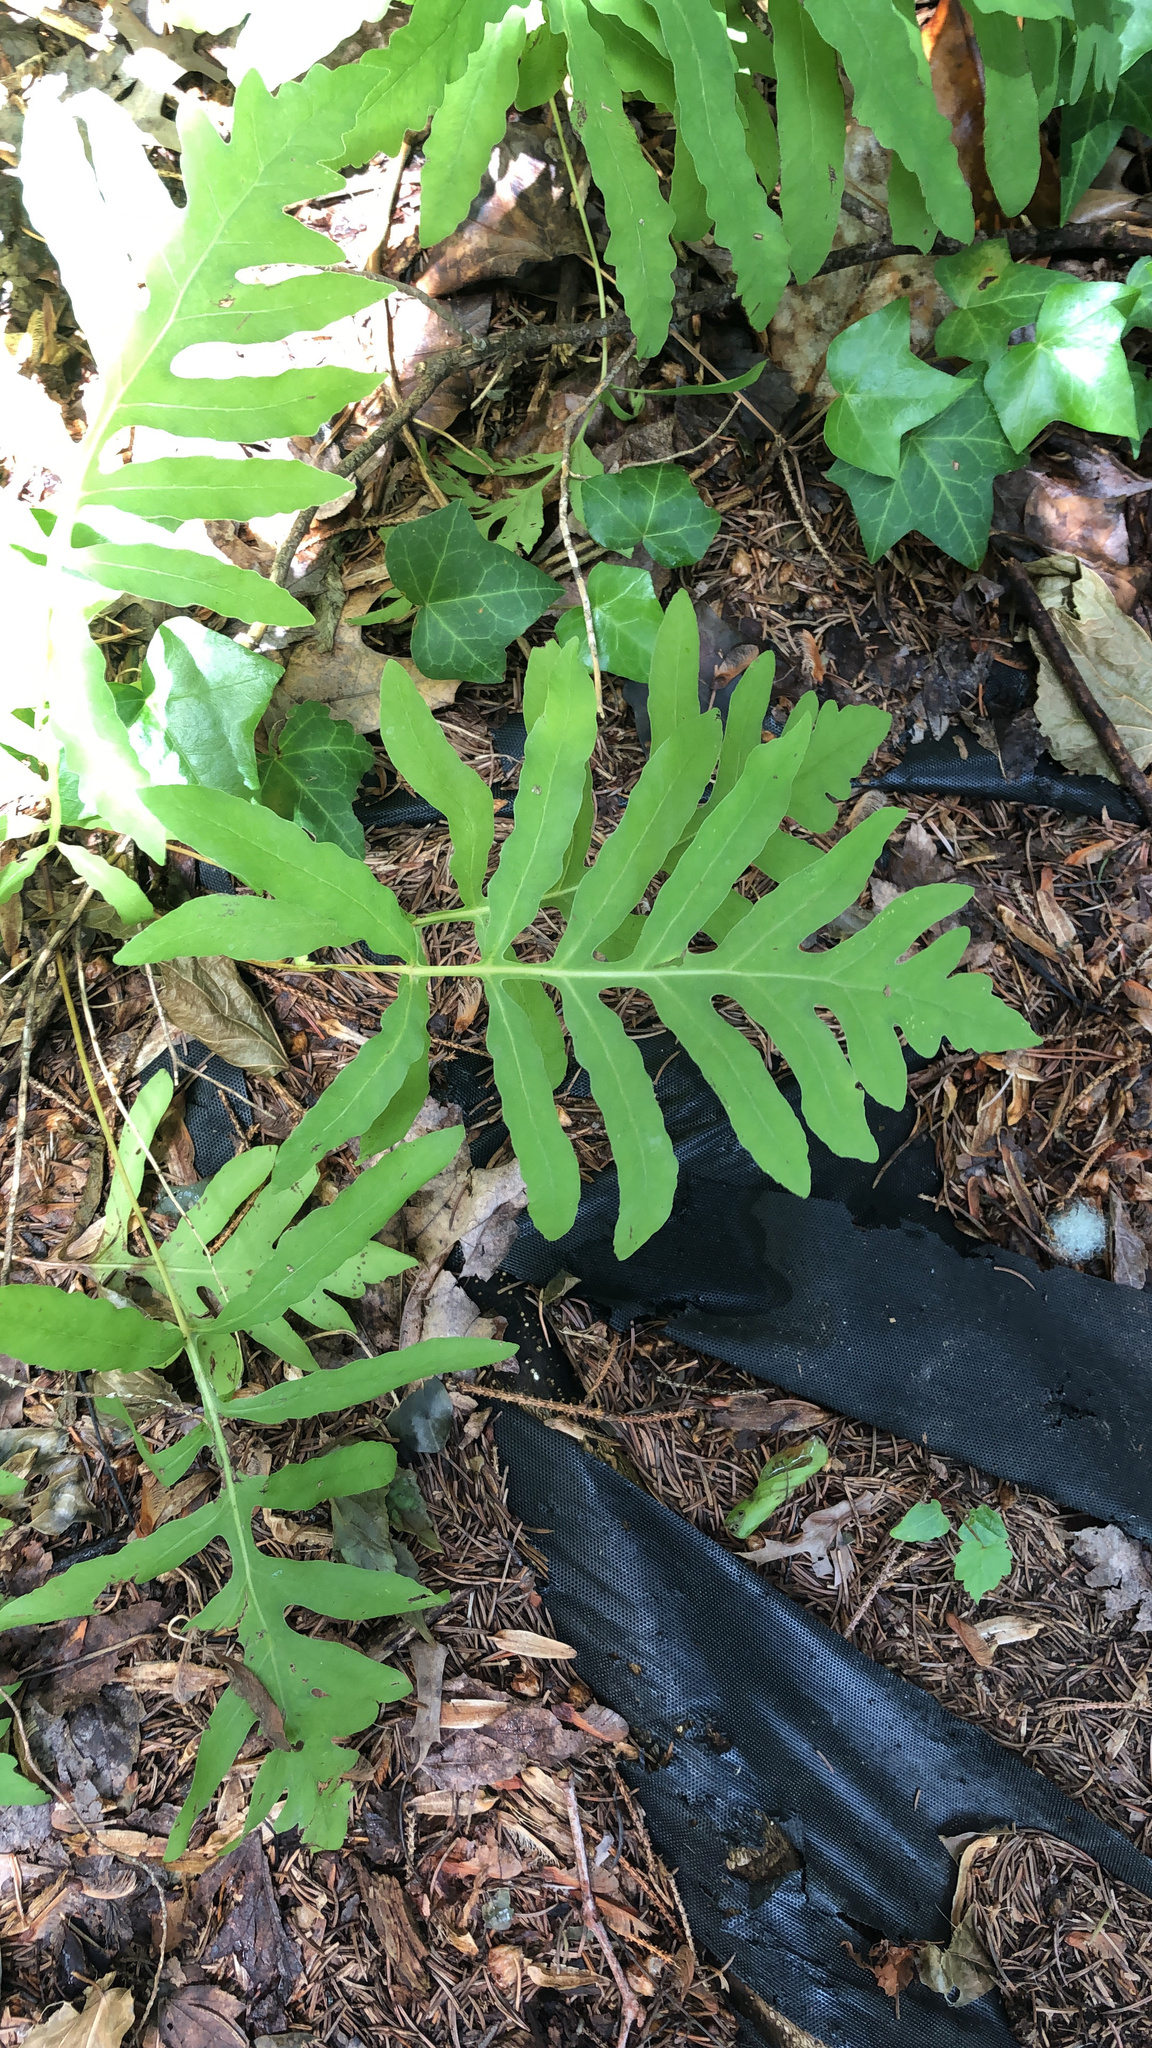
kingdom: Plantae
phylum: Tracheophyta
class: Polypodiopsida
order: Polypodiales
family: Onocleaceae
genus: Onoclea
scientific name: Onoclea sensibilis
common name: Sensitive fern
